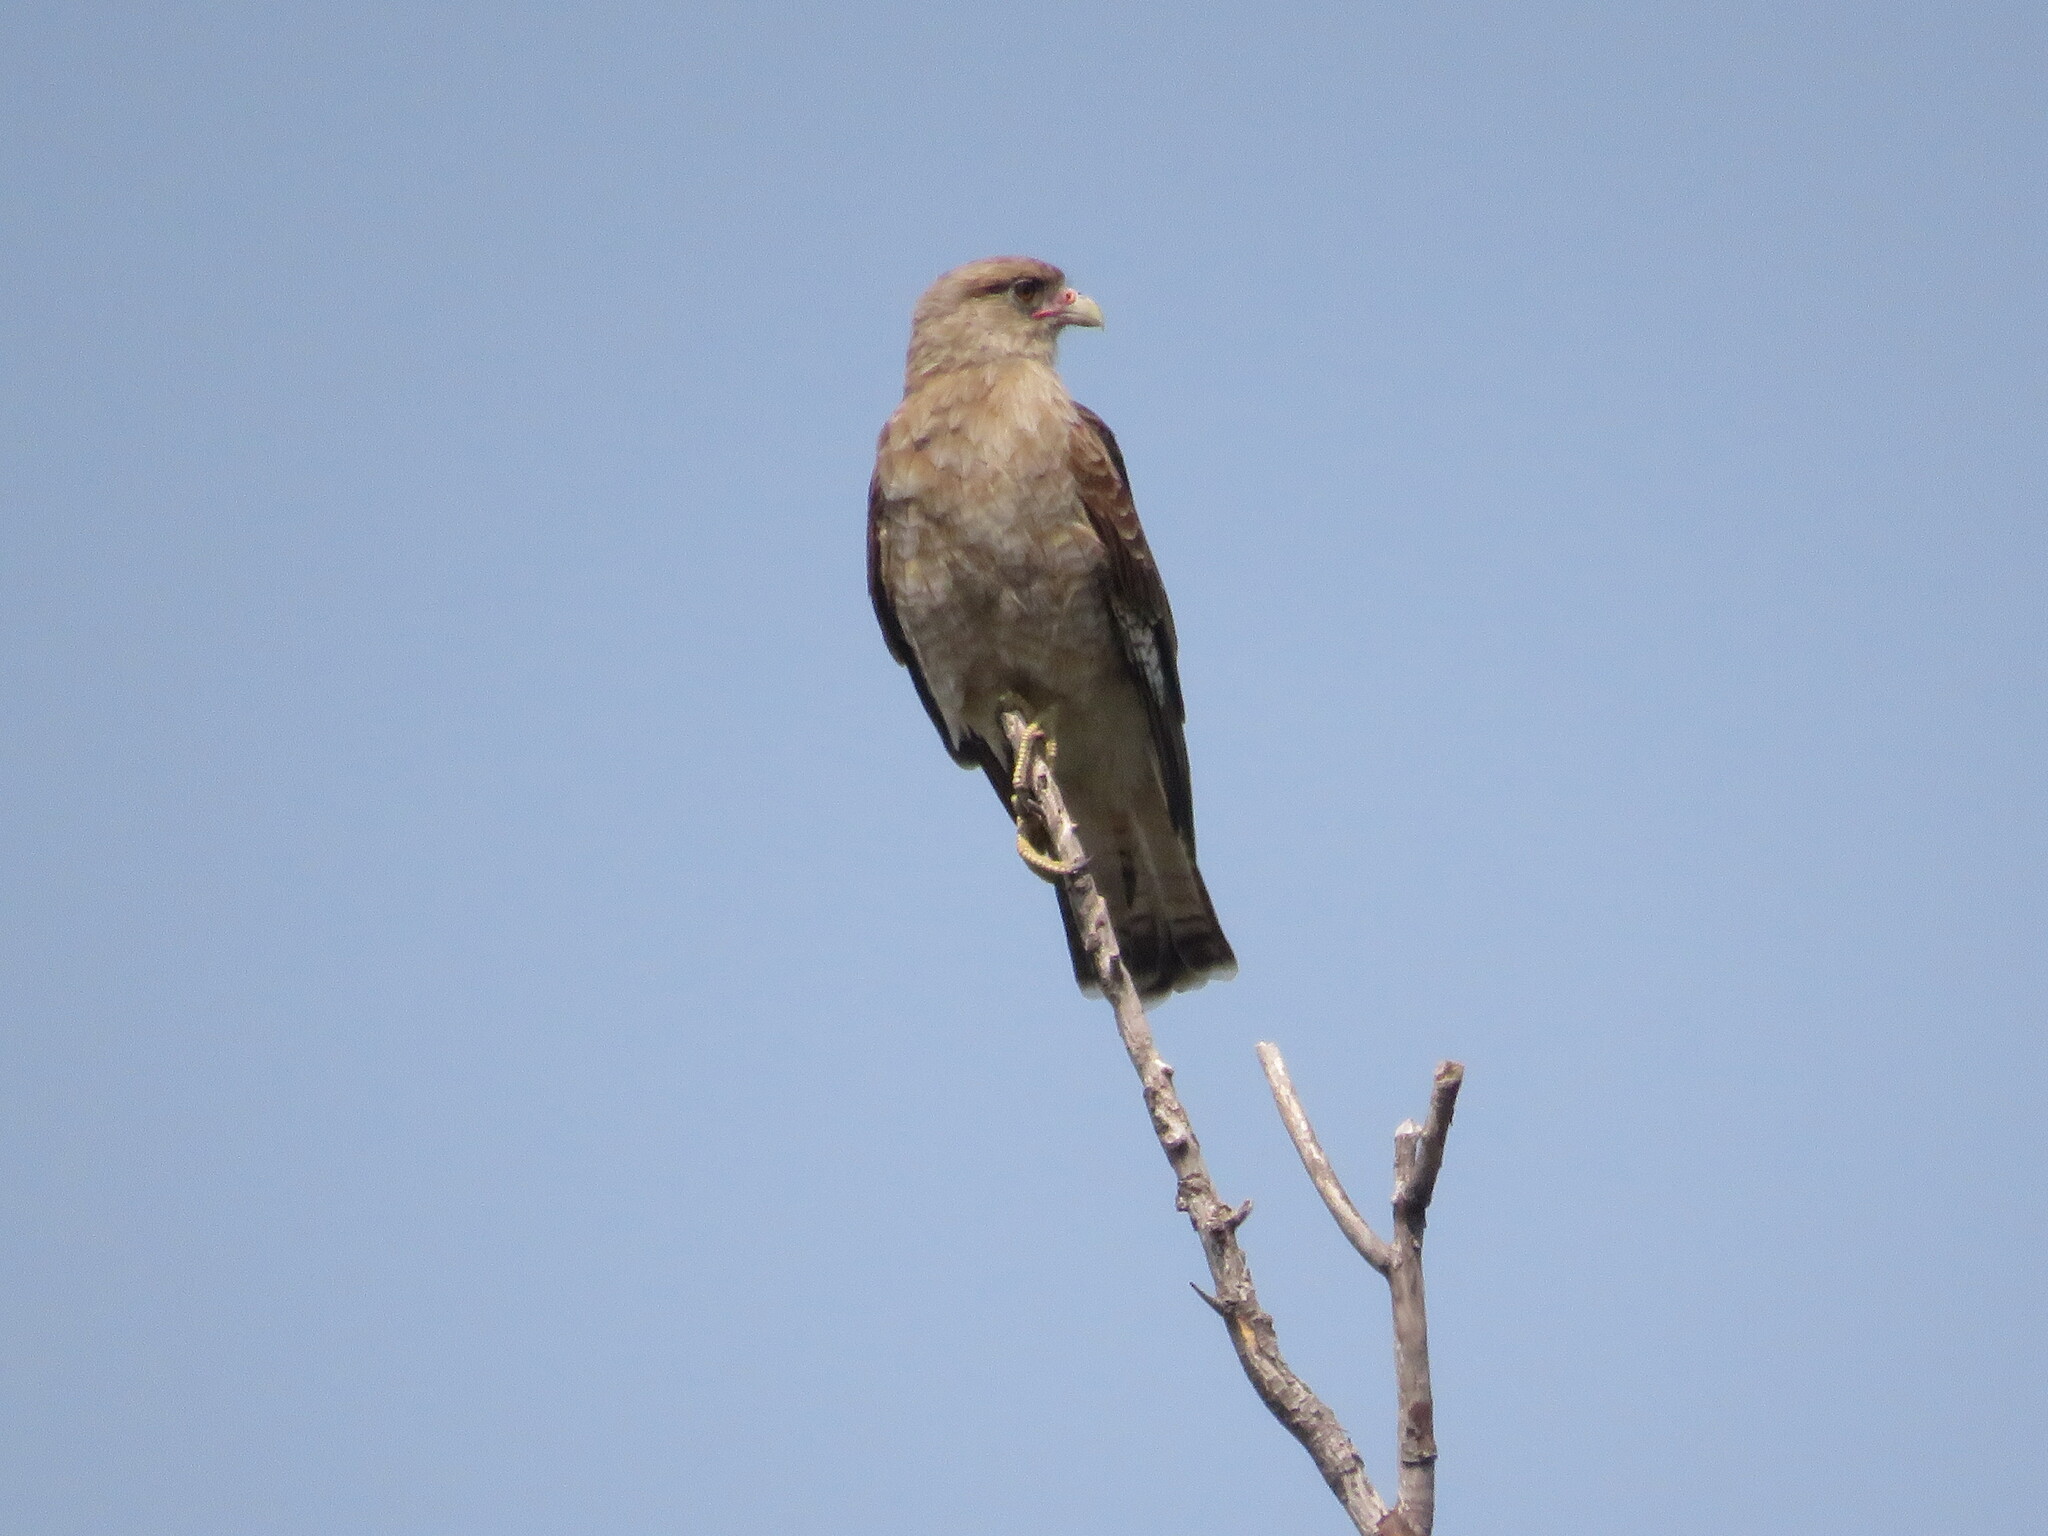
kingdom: Animalia
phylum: Chordata
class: Aves
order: Falconiformes
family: Falconidae
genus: Daptrius
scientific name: Daptrius
